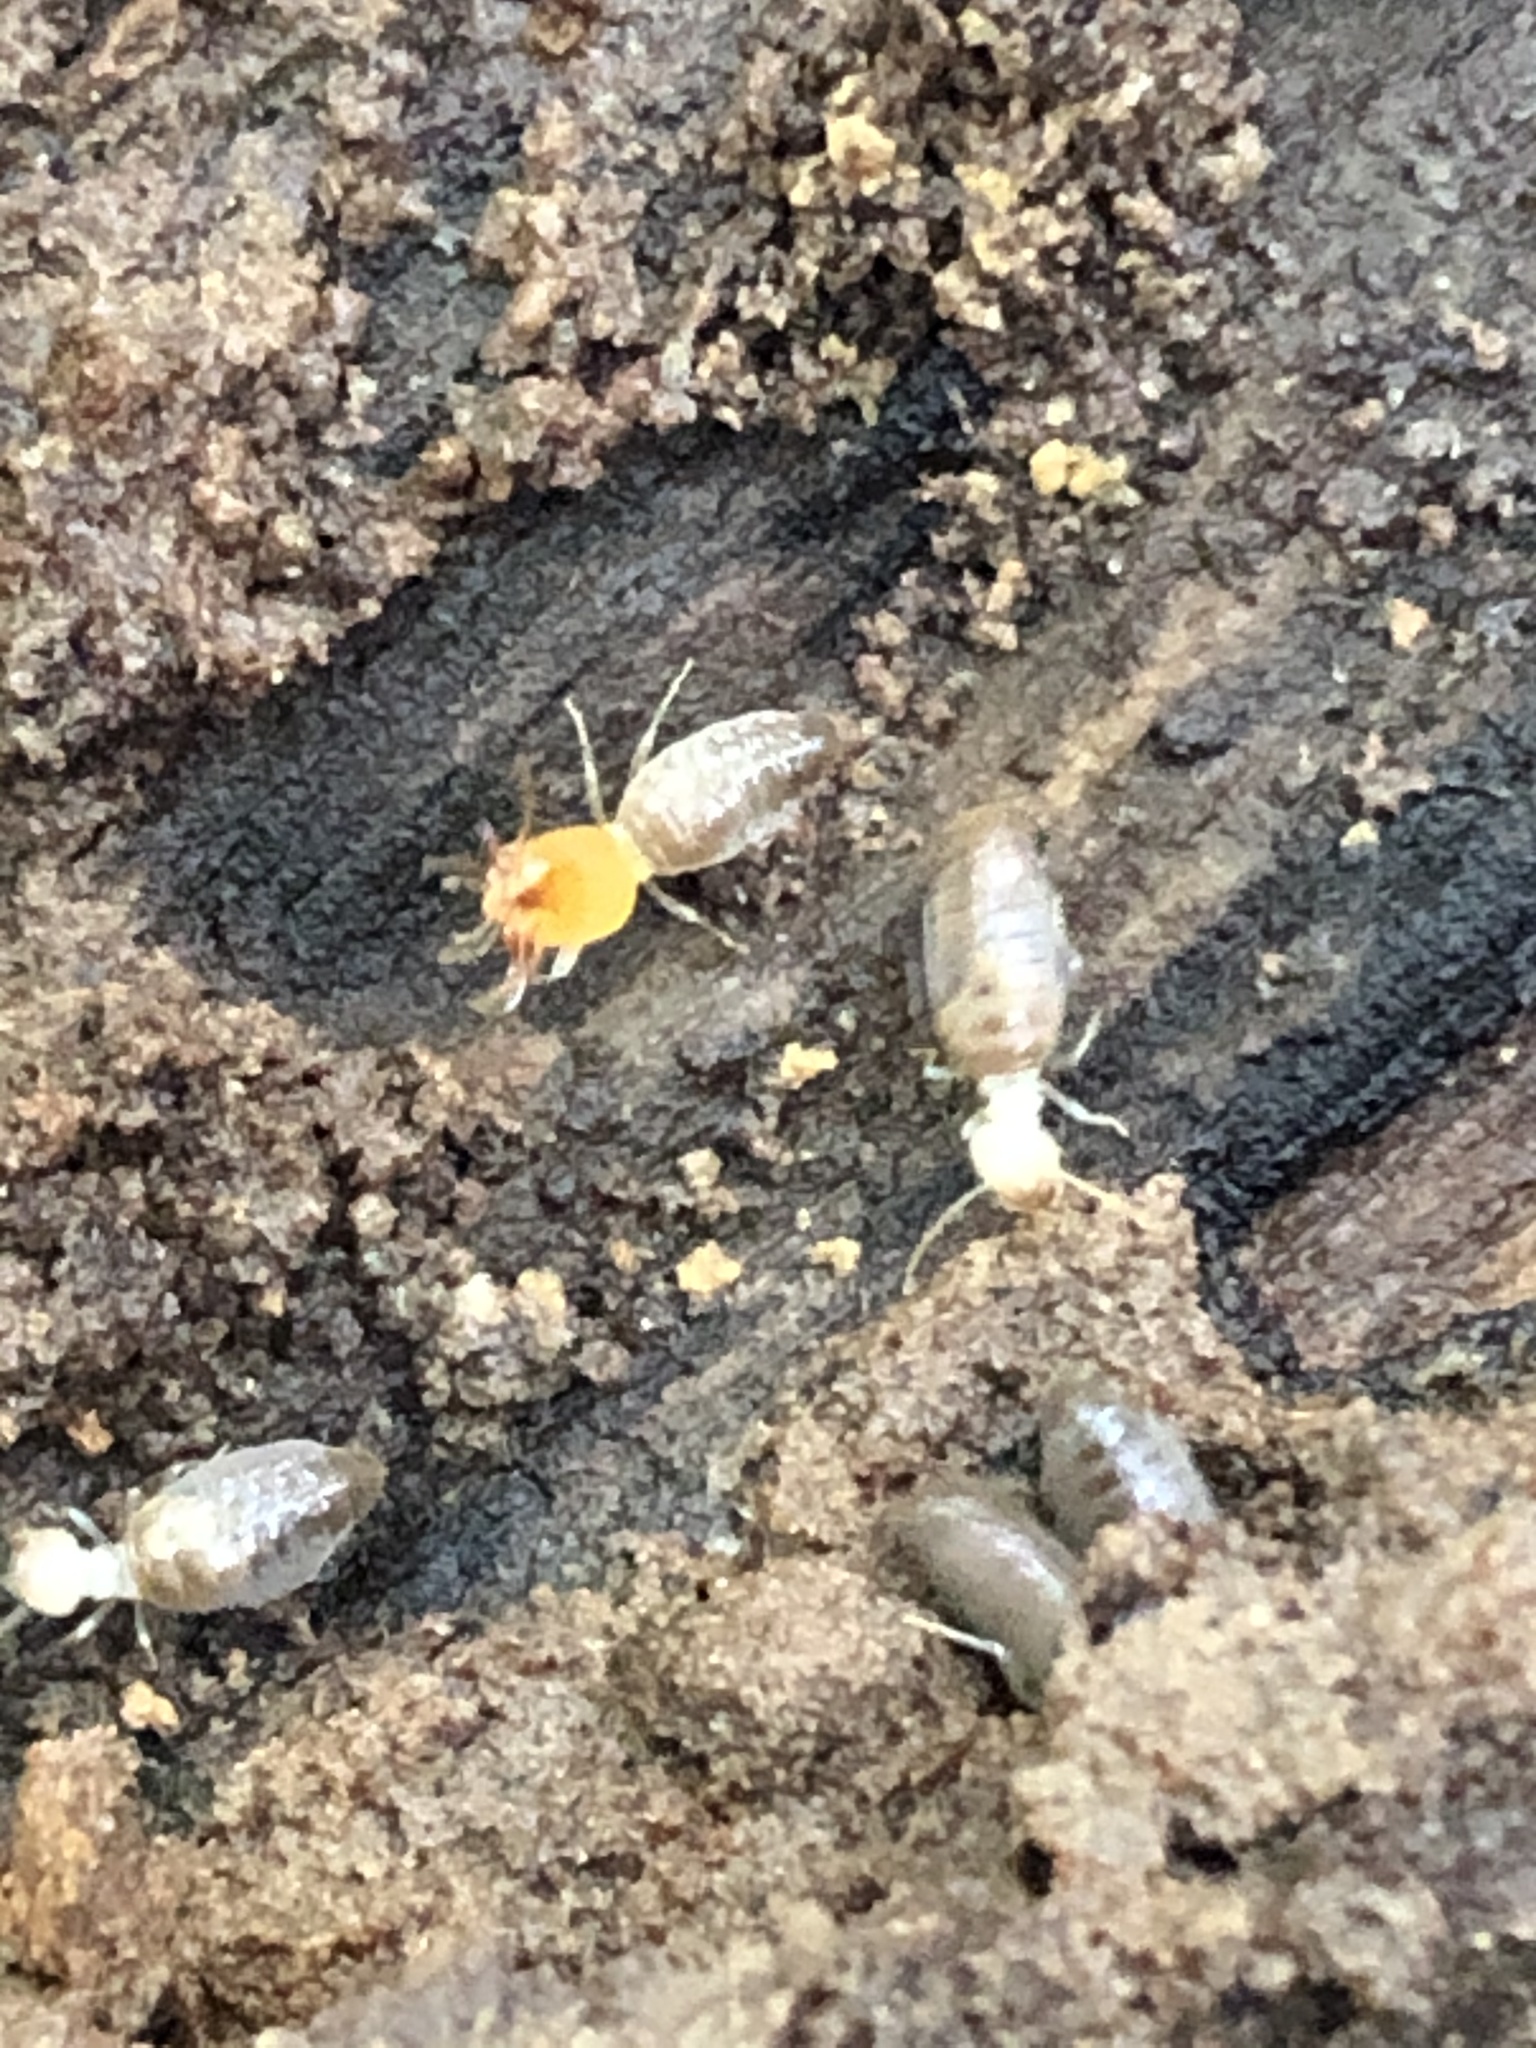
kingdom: Animalia
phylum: Arthropoda
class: Insecta
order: Blattodea
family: Termitidae
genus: Embiratermes
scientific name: Embiratermes neotenicus
